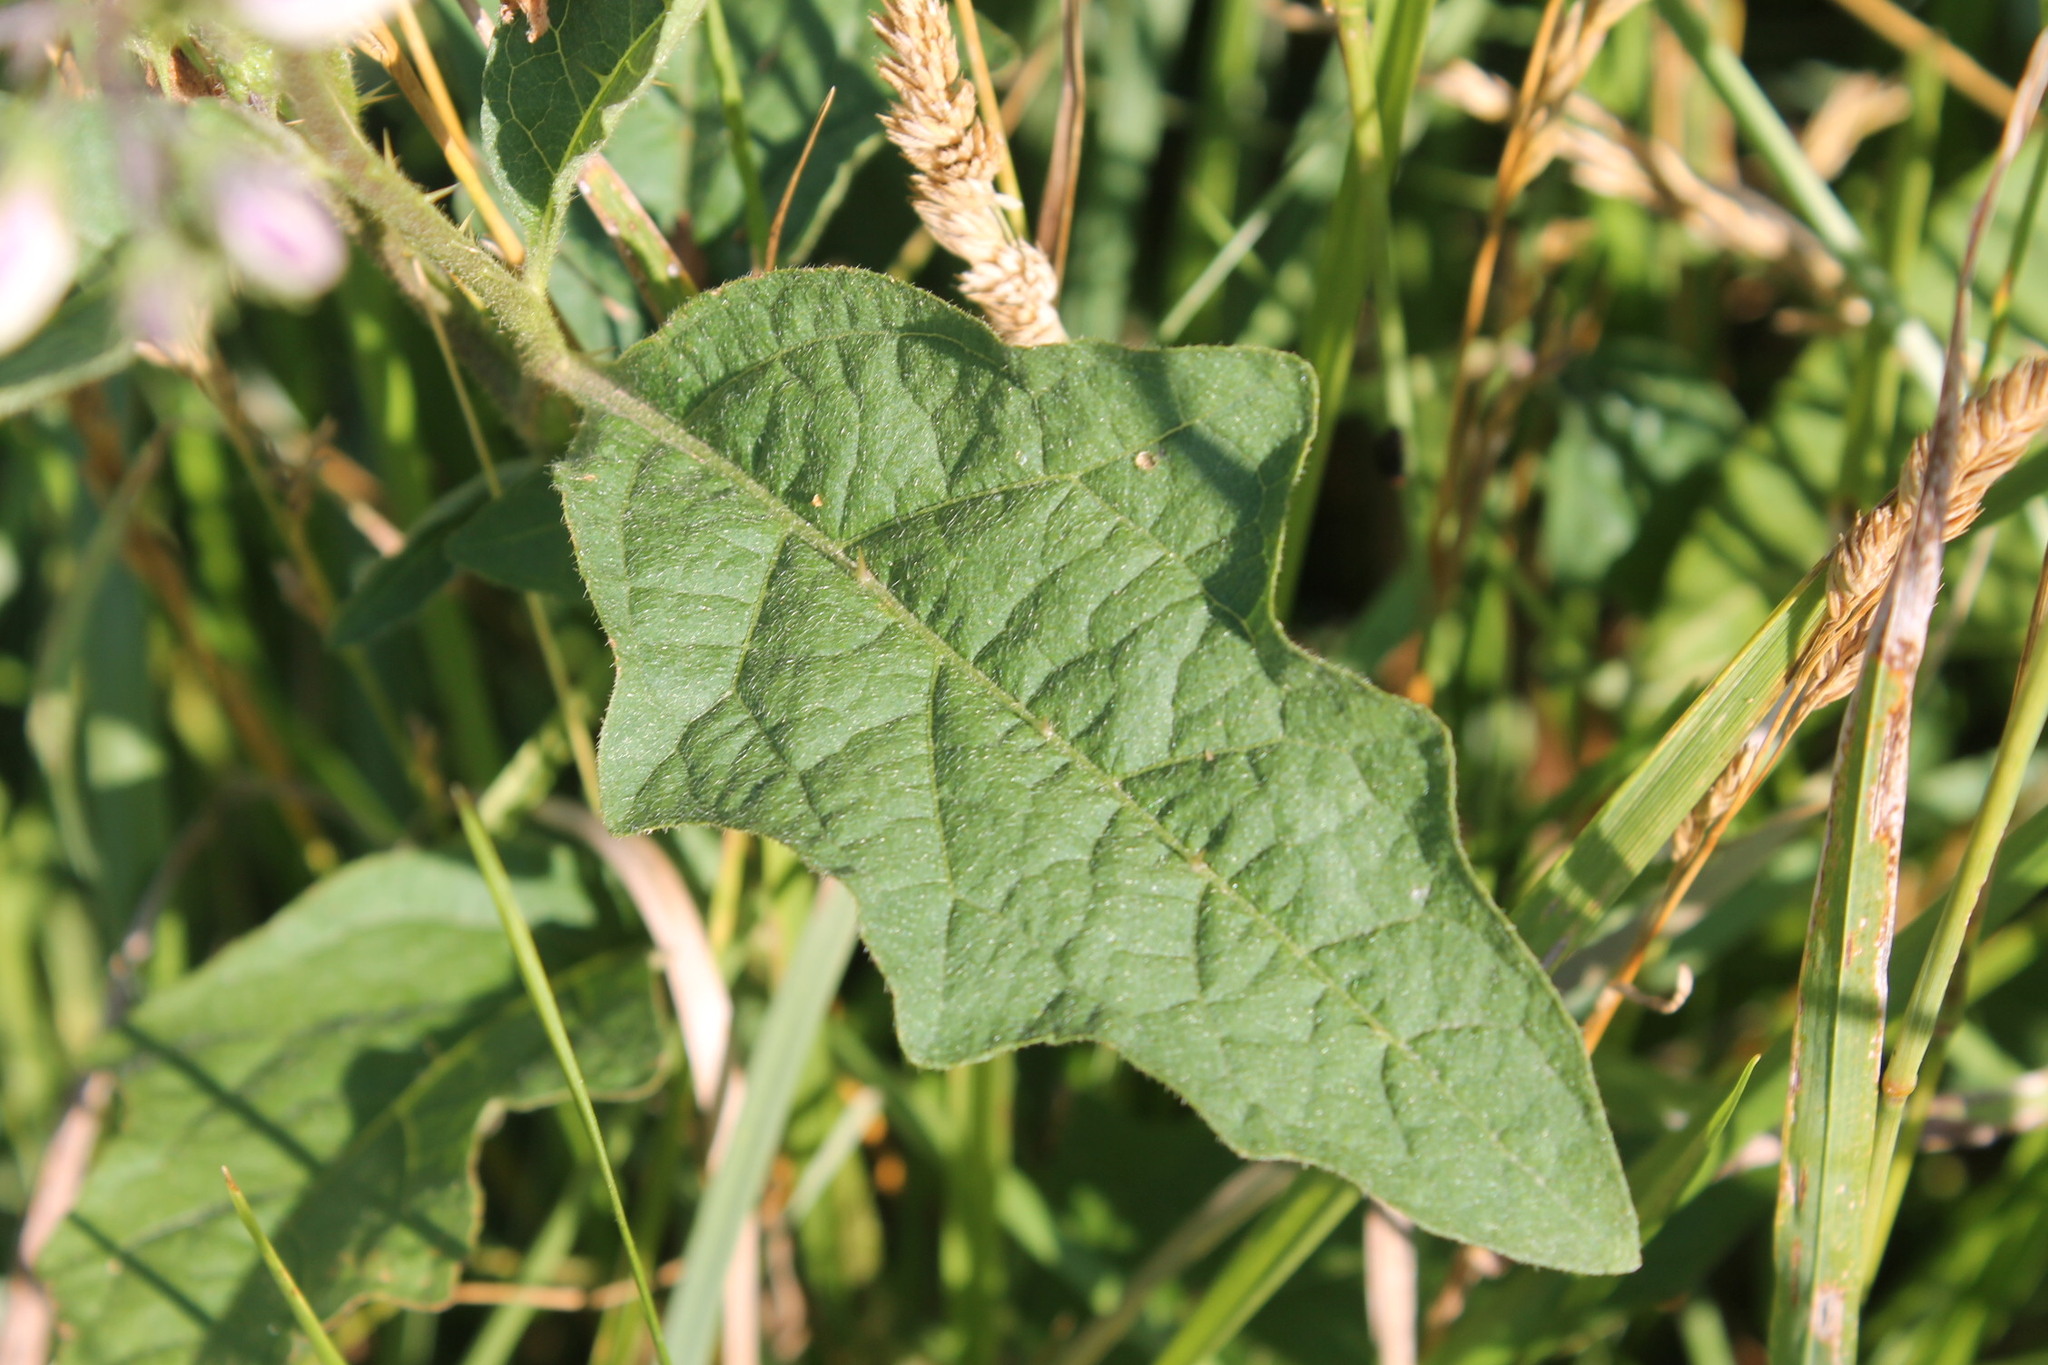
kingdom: Plantae
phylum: Tracheophyta
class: Magnoliopsida
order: Solanales
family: Solanaceae
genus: Solanum
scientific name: Solanum carolinense
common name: Horse-nettle
